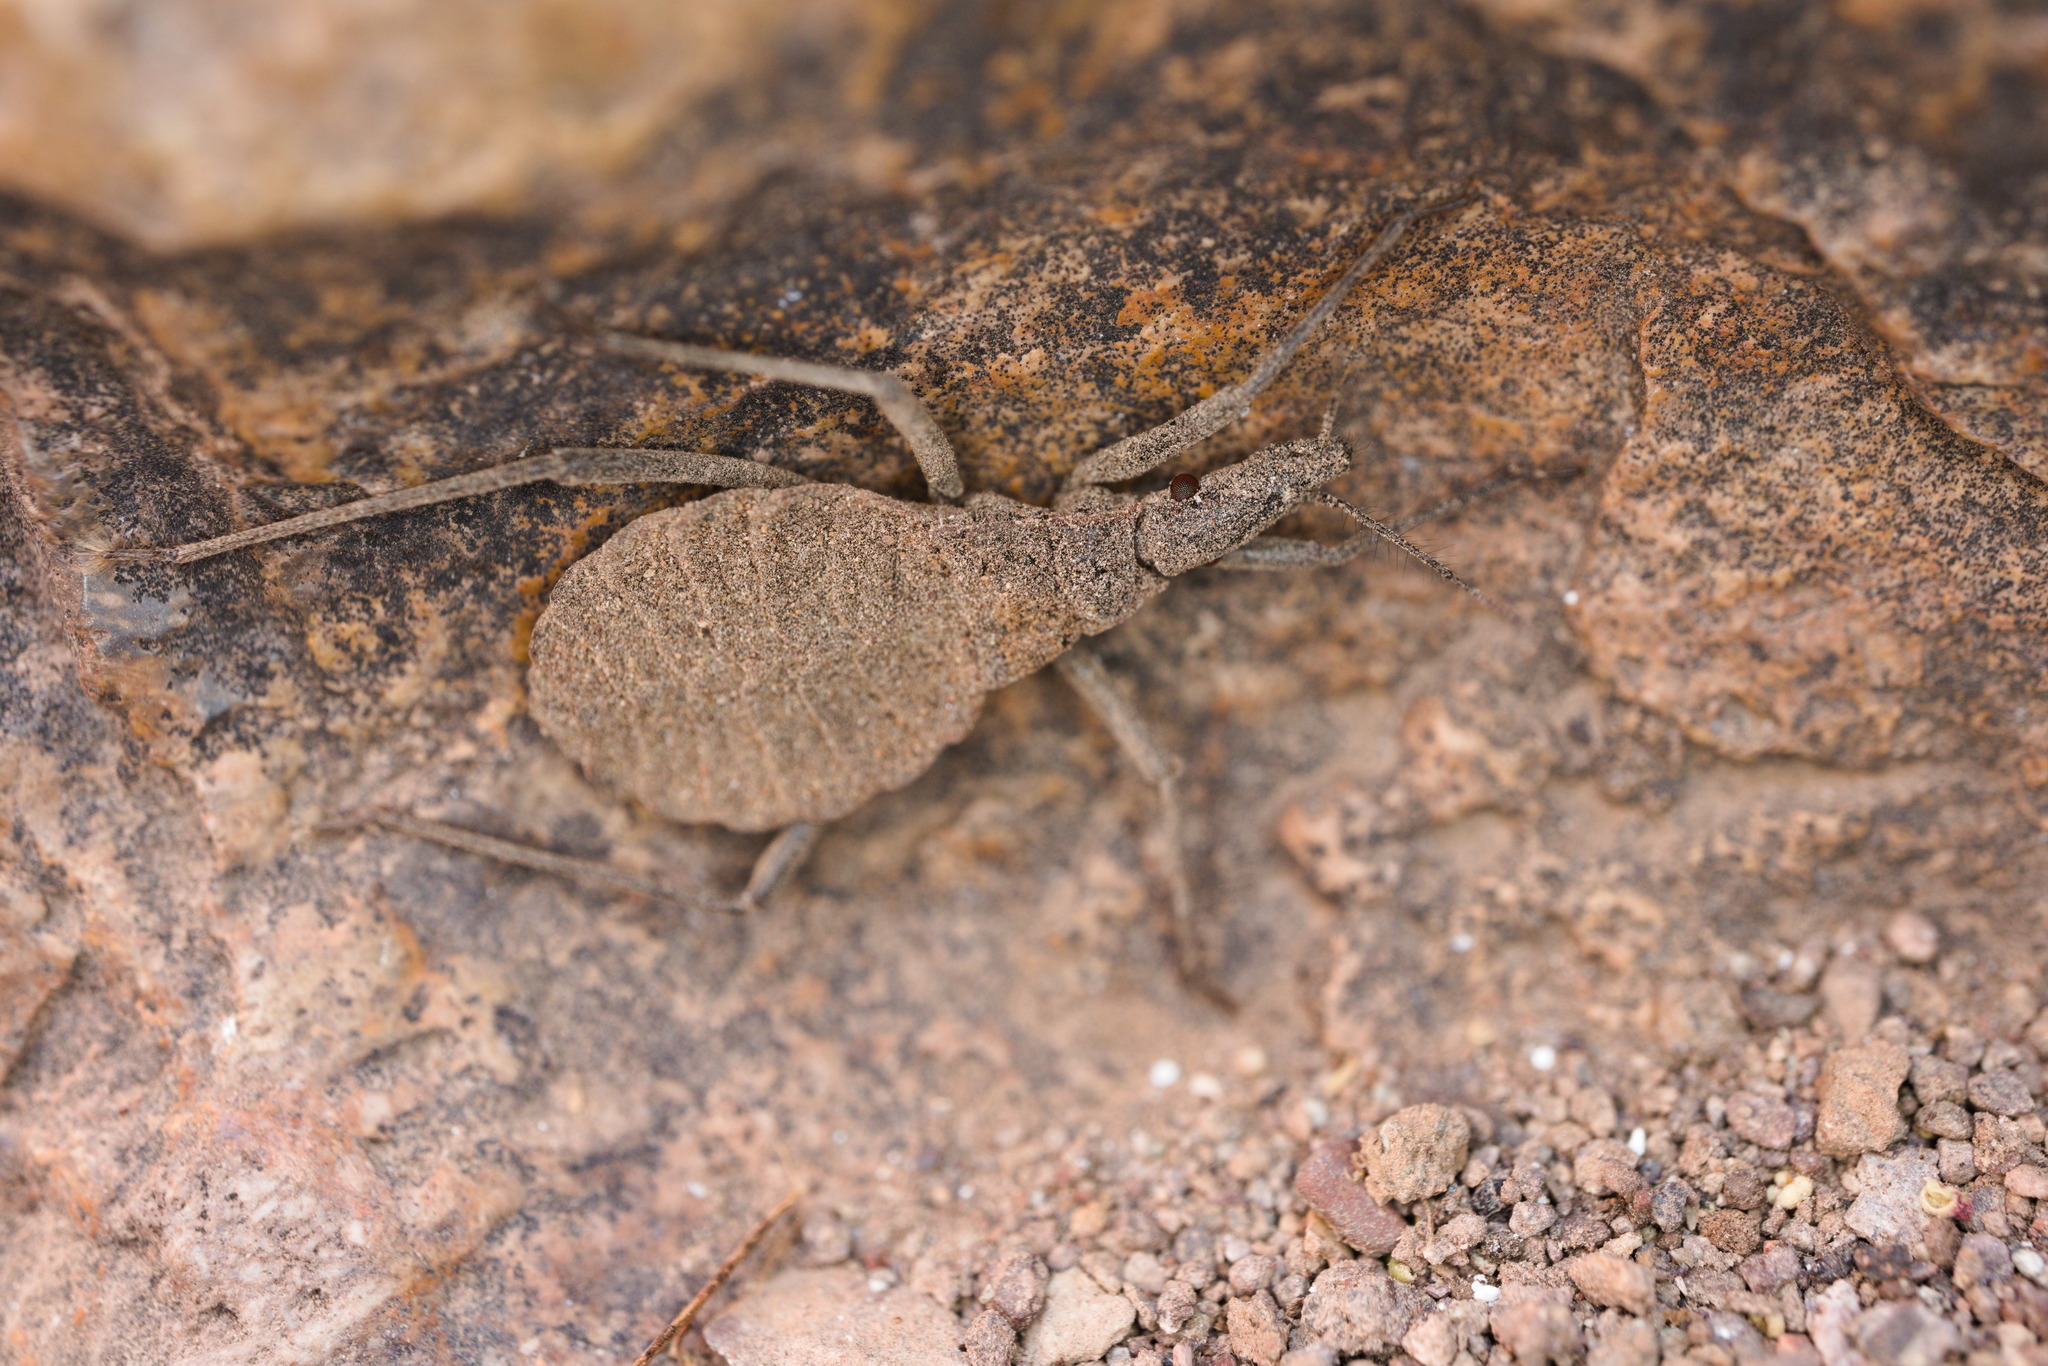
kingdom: Animalia
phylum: Arthropoda
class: Insecta
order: Hemiptera
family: Reduviidae
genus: Mepraia
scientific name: Mepraia spinolai
